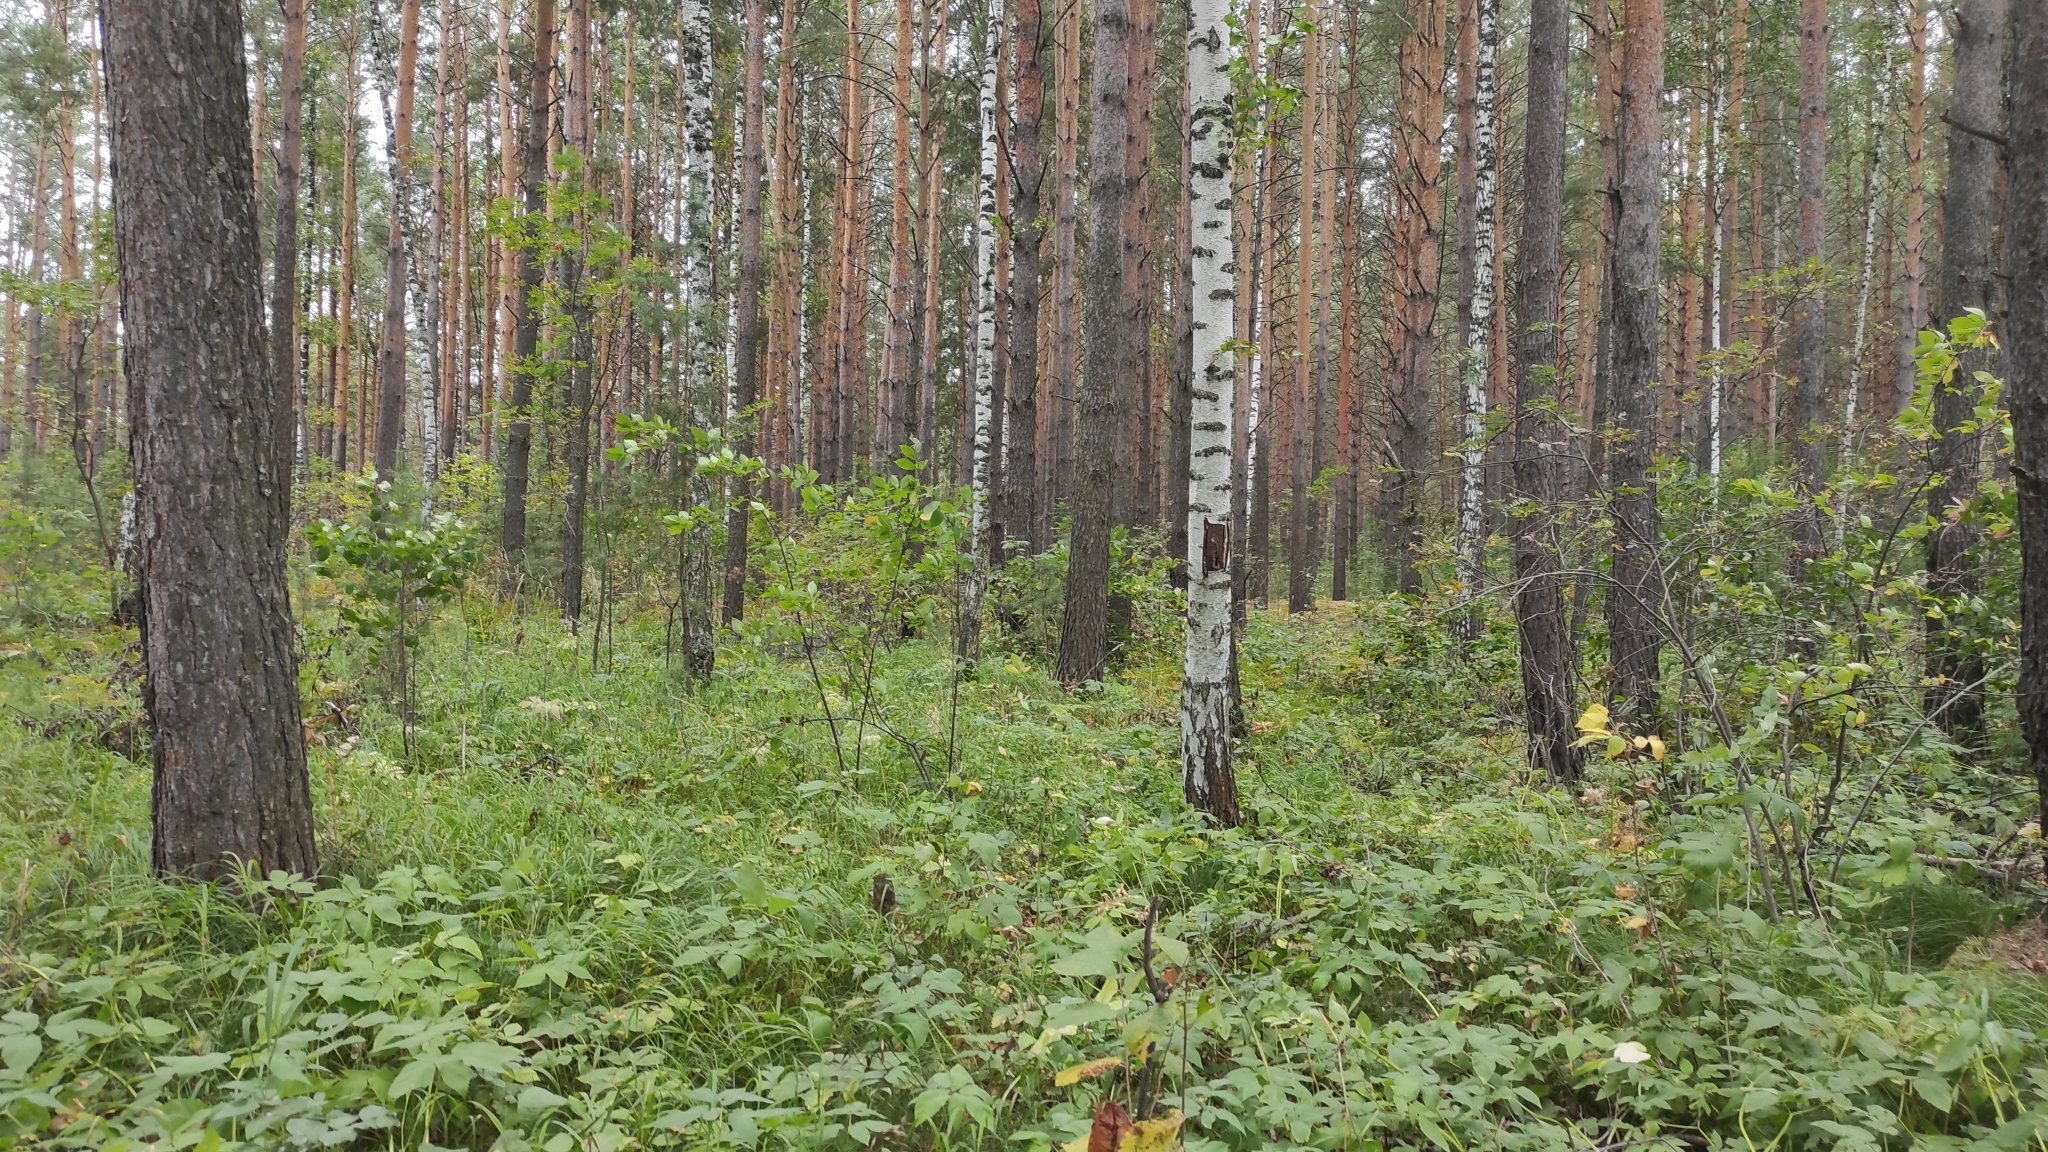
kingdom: Plantae
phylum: Tracheophyta
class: Pinopsida
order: Pinales
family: Pinaceae
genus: Pinus
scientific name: Pinus sylvestris
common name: Scots pine
